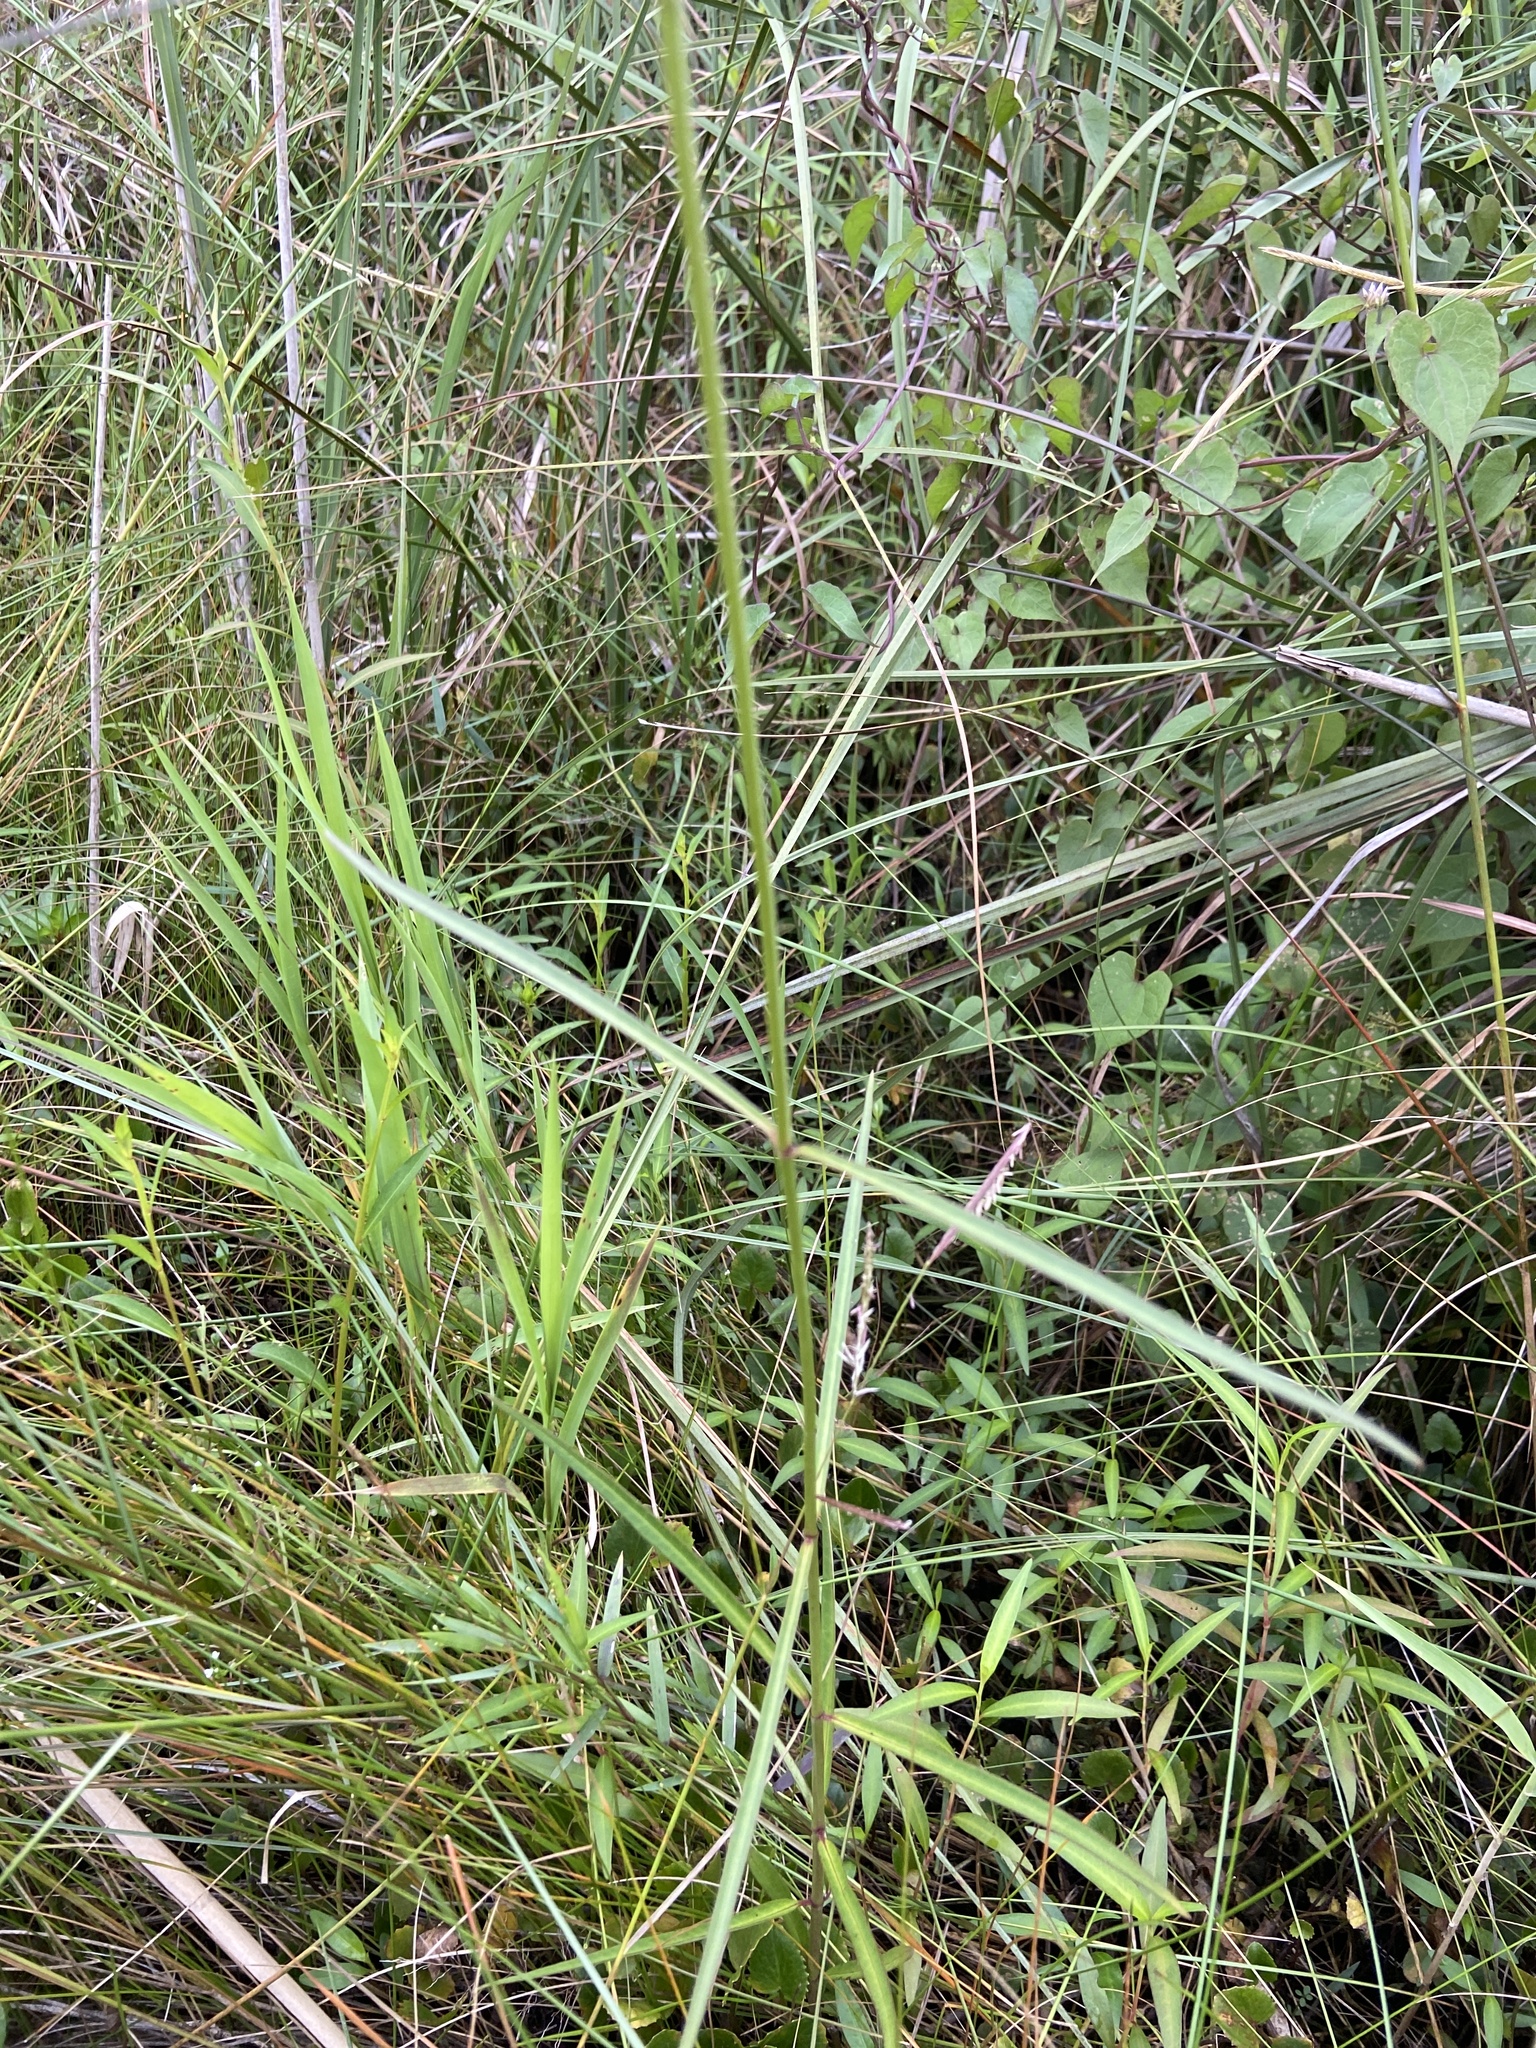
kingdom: Plantae
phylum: Tracheophyta
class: Magnoliopsida
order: Gentianales
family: Apocynaceae
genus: Asclepias
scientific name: Asclepias lanceolata
